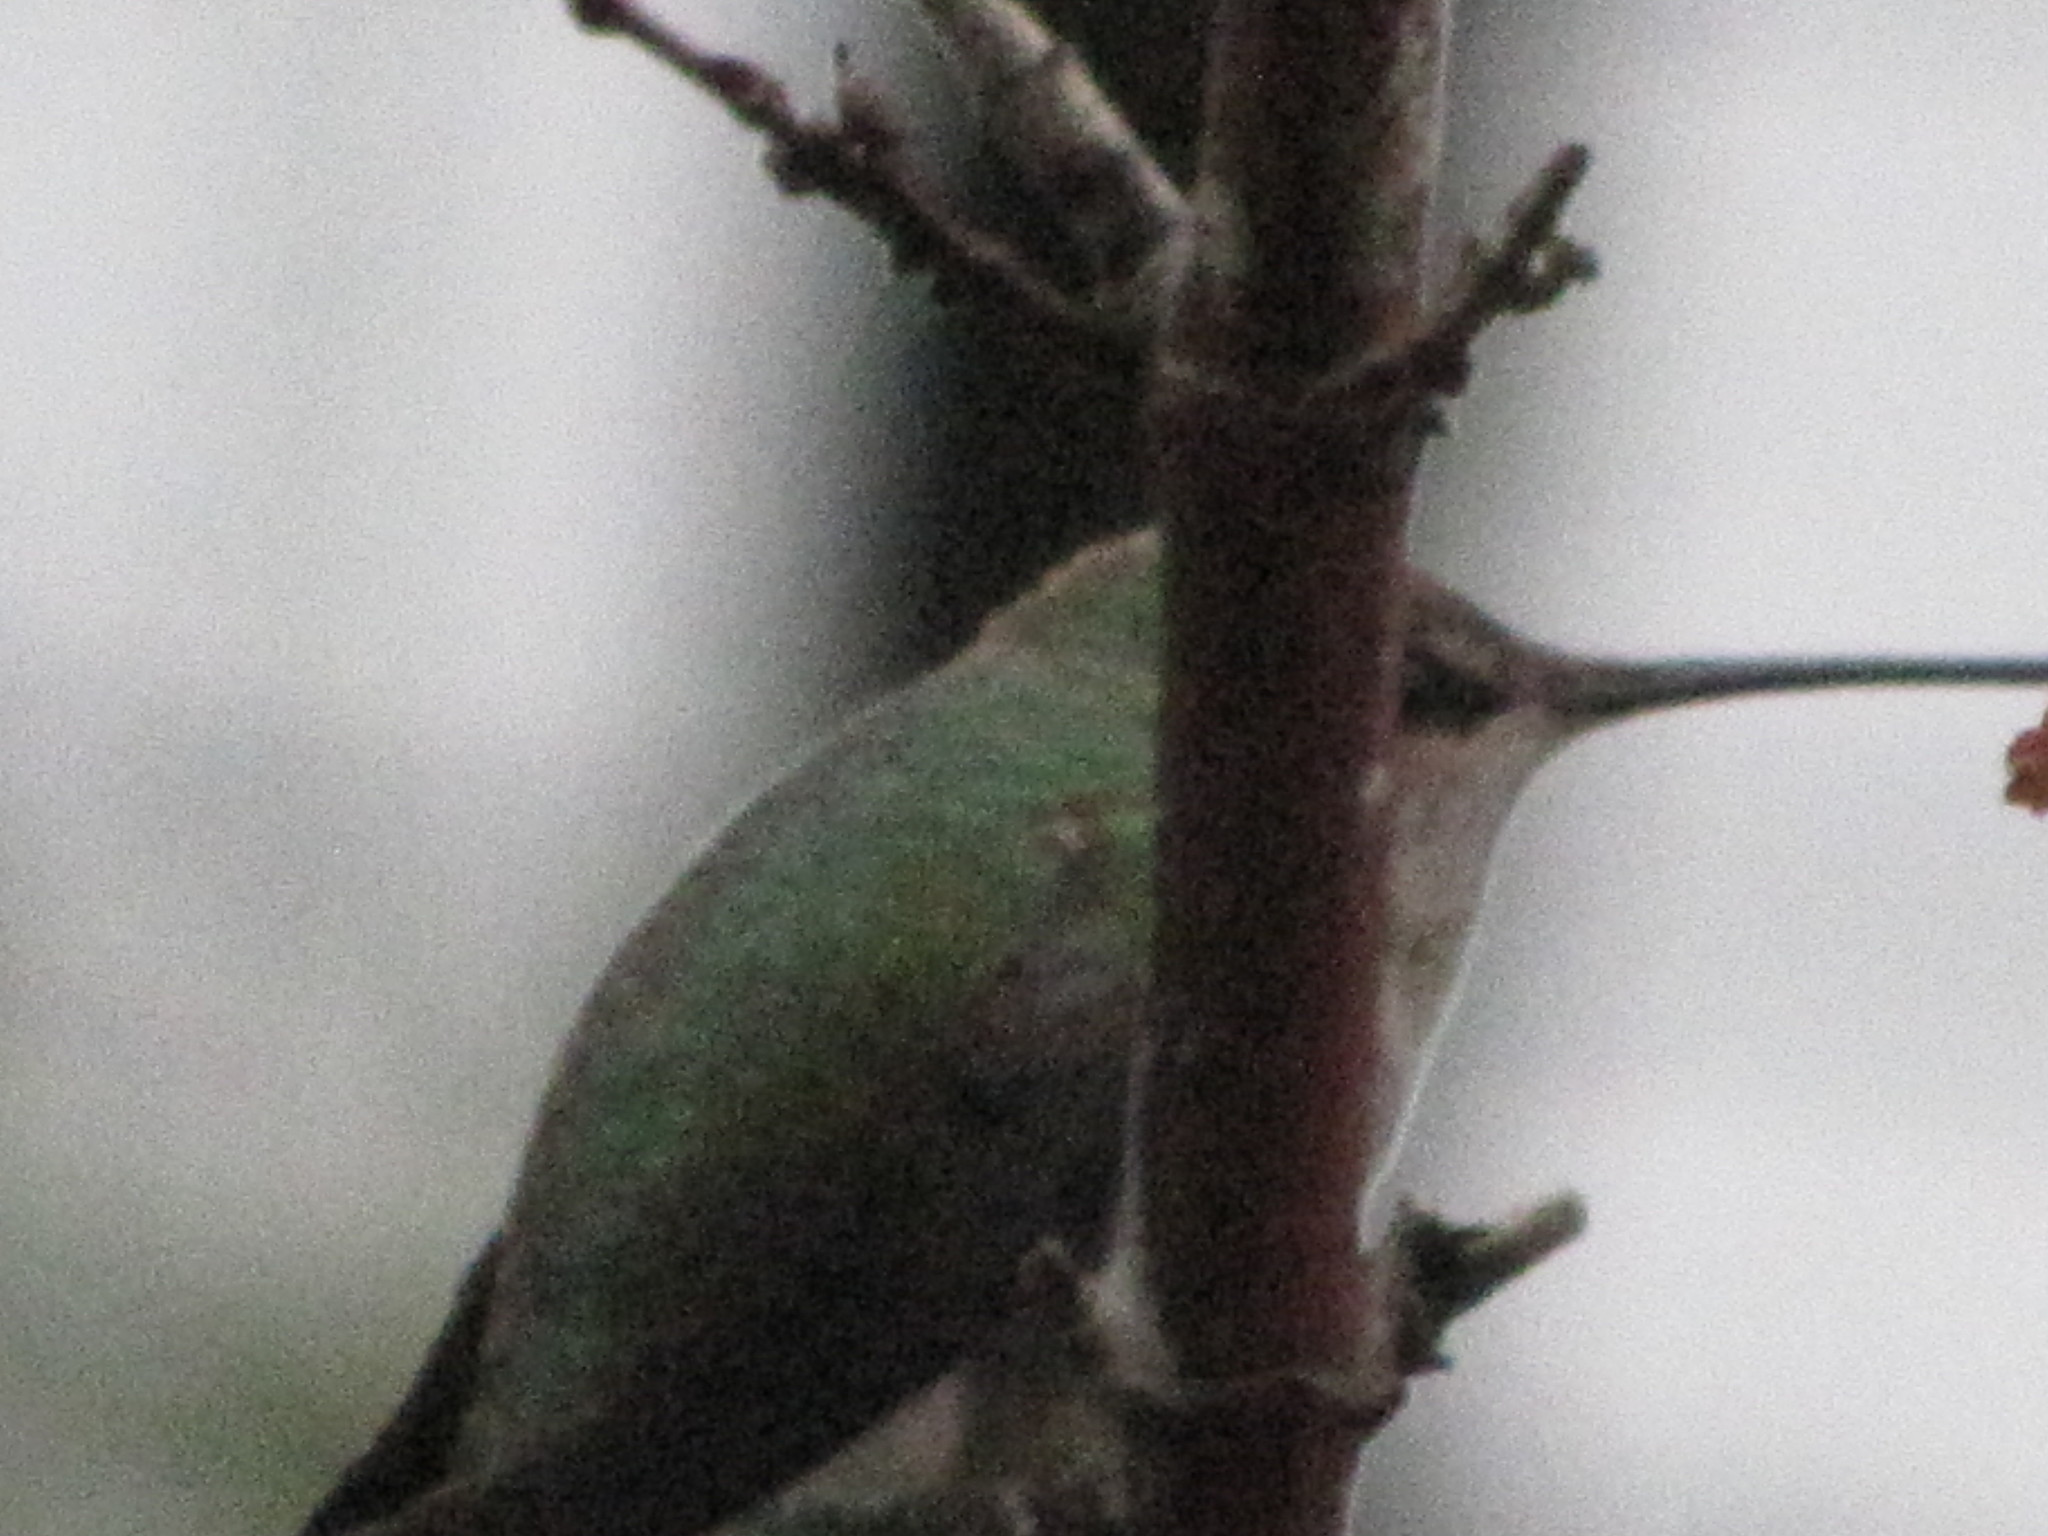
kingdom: Animalia
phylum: Chordata
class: Aves
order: Apodiformes
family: Trochilidae
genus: Calypte
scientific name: Calypte anna
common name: Anna's hummingbird
